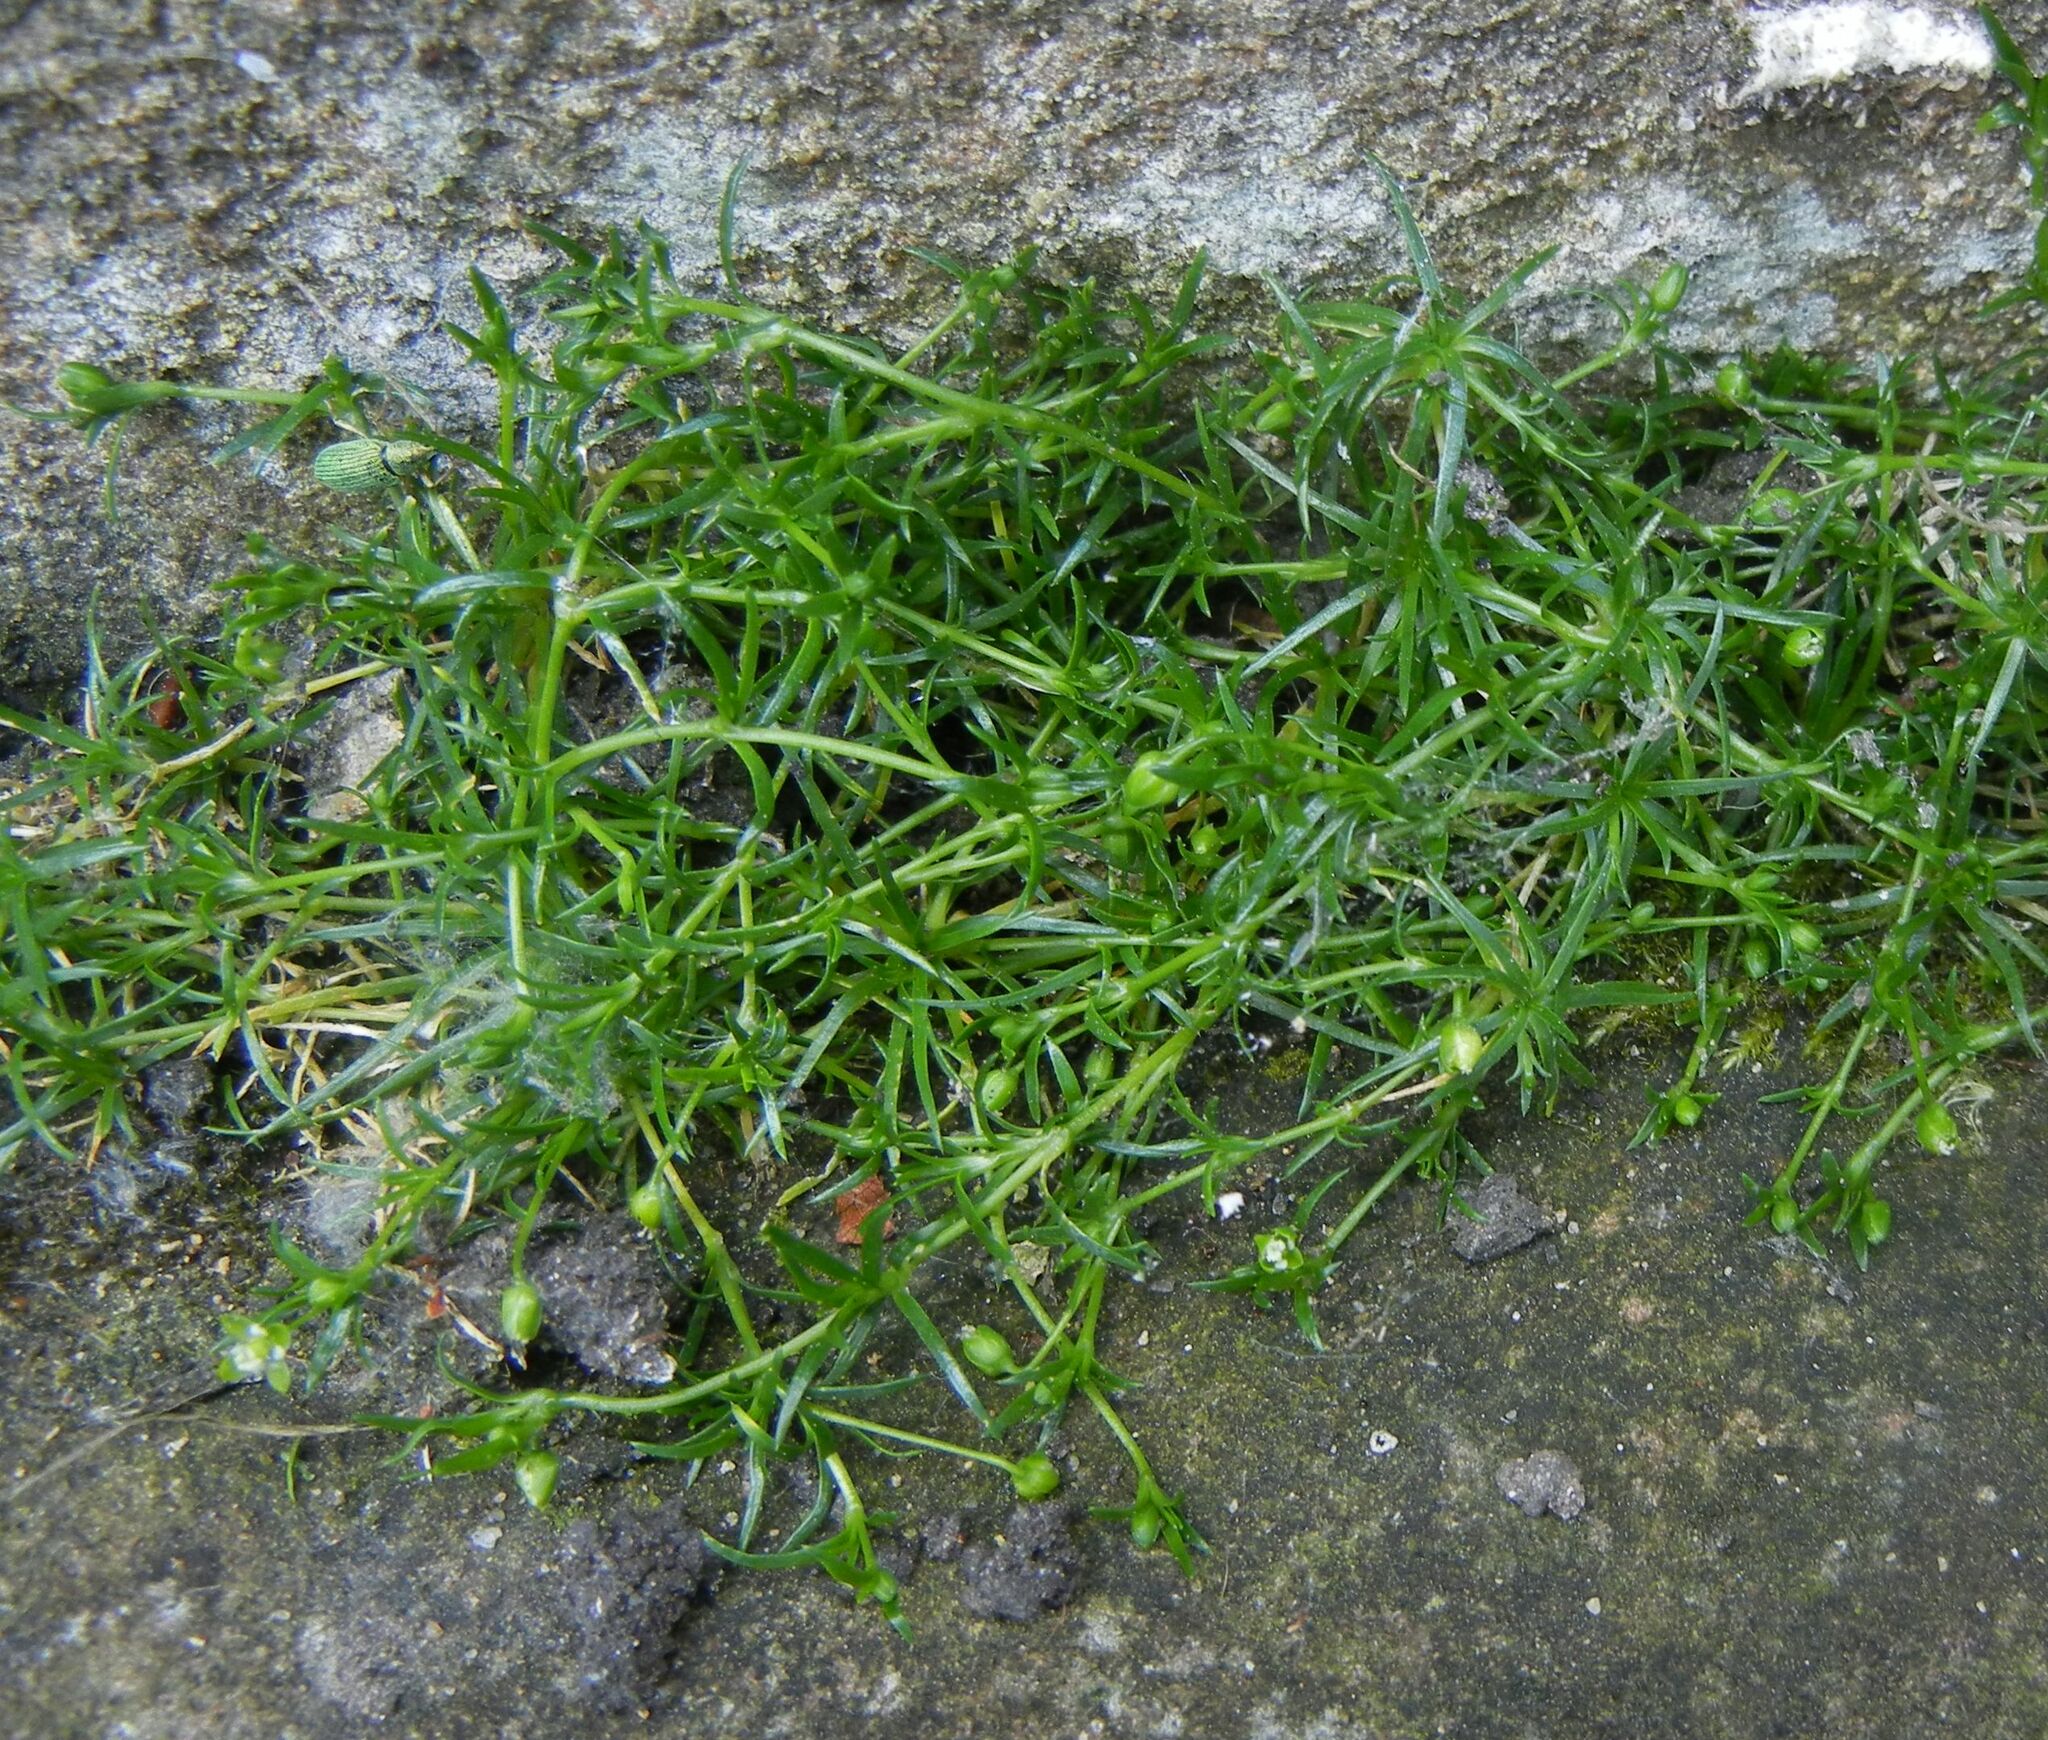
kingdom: Plantae
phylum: Tracheophyta
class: Magnoliopsida
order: Caryophyllales
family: Caryophyllaceae
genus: Sagina
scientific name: Sagina procumbens
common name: Procumbent pearlwort
